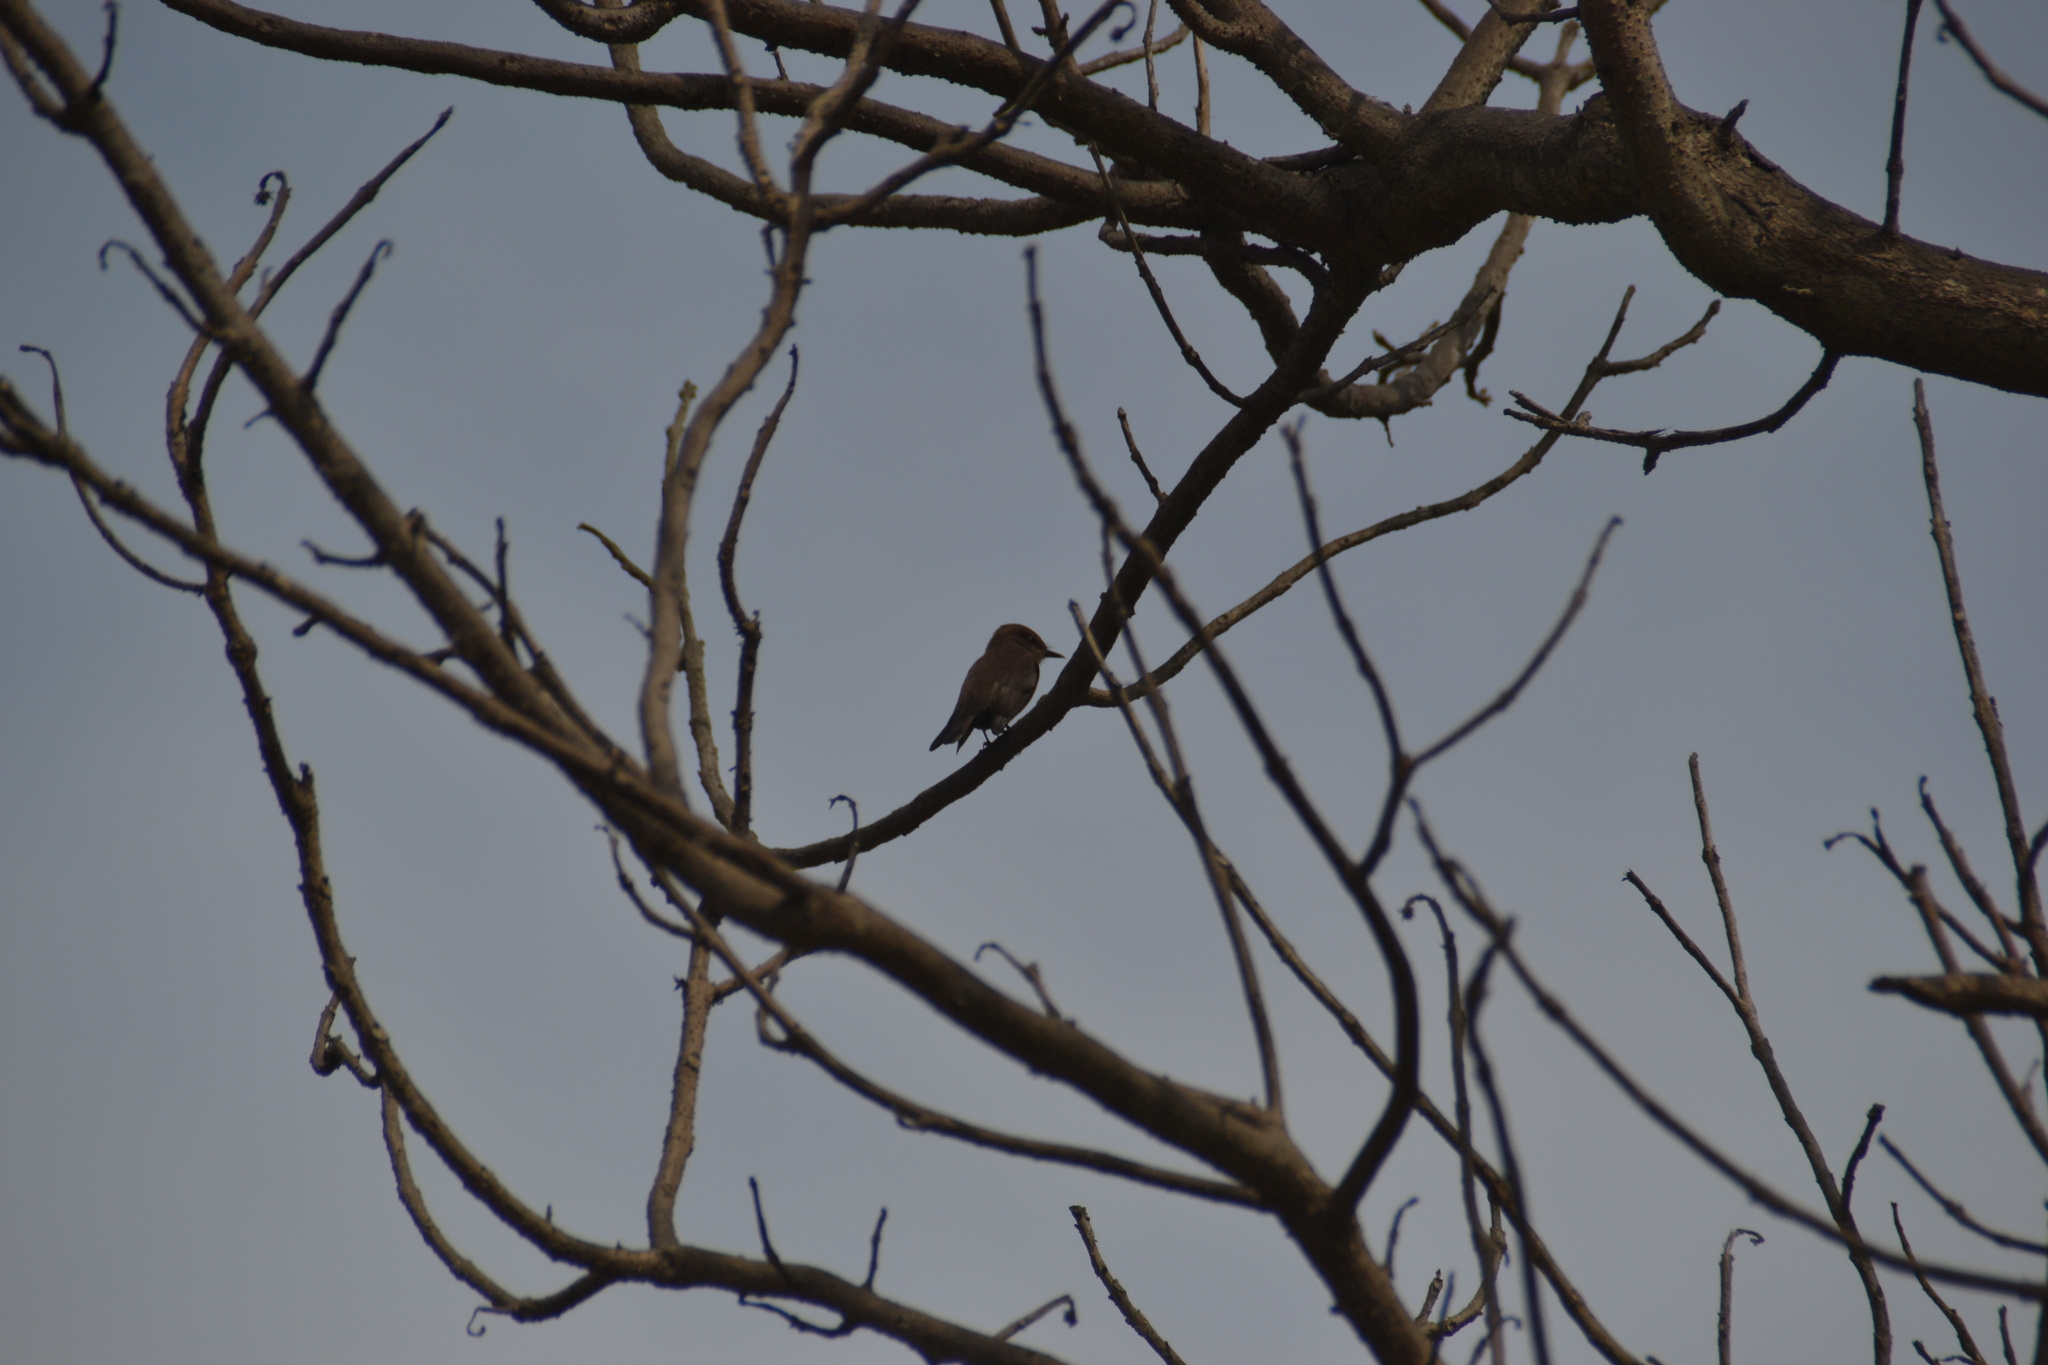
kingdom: Animalia
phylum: Chordata
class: Aves
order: Passeriformes
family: Tyrannidae
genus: Pyrocephalus
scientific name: Pyrocephalus rubinus
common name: Vermilion flycatcher
